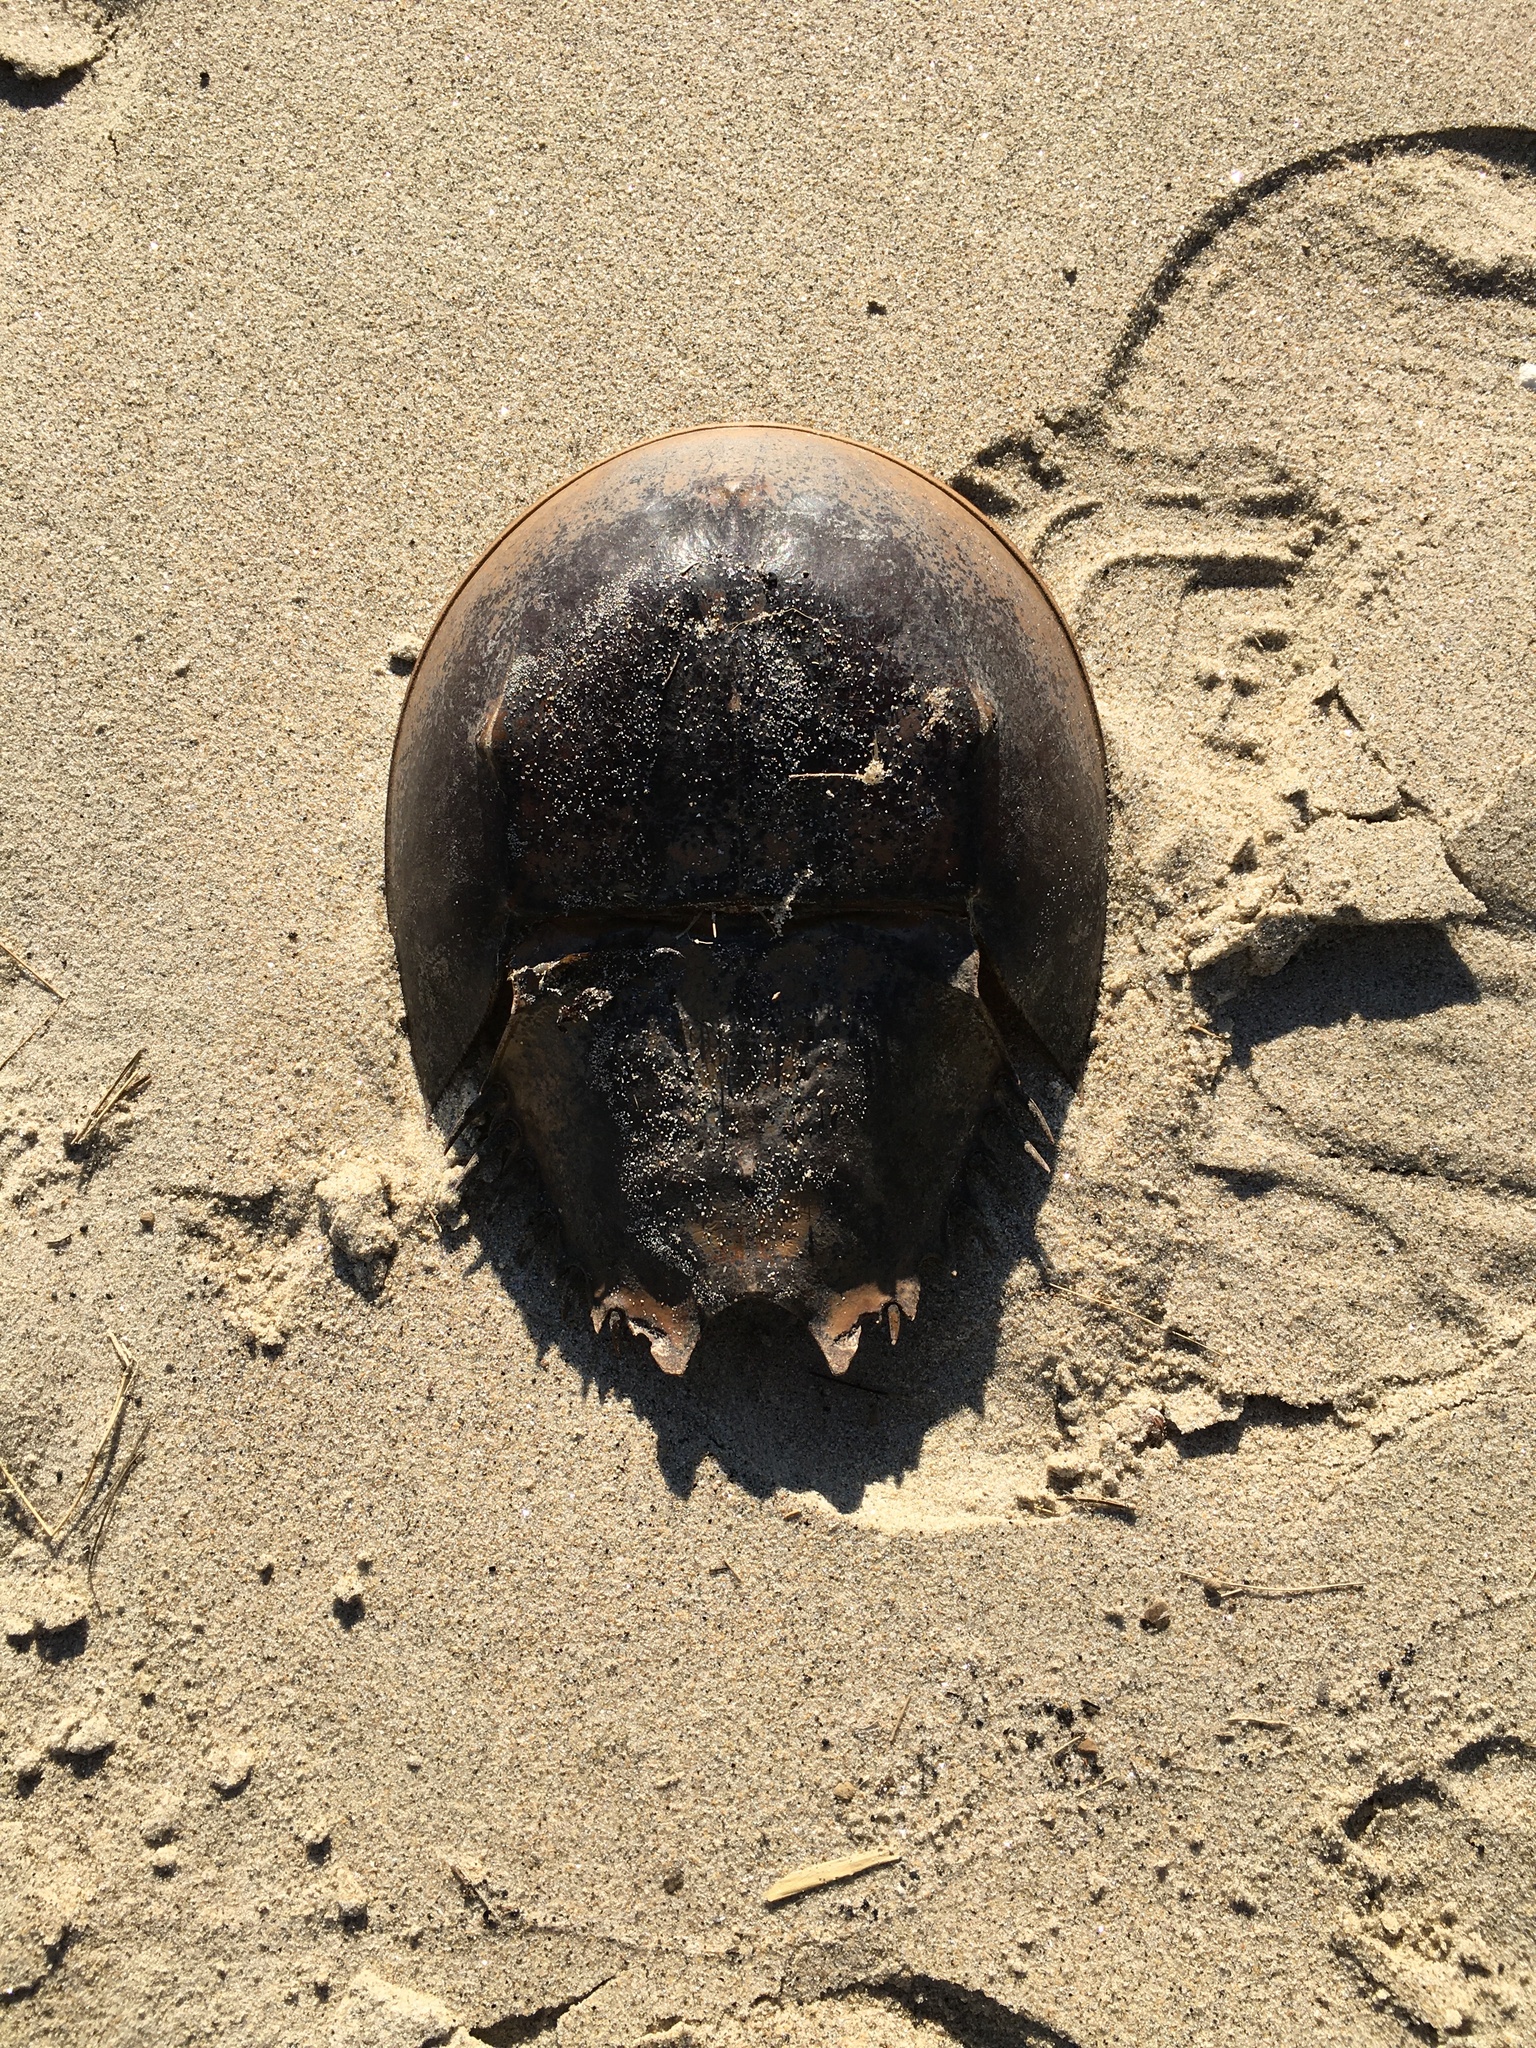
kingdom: Animalia
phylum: Arthropoda
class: Merostomata
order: Xiphosurida
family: Limulidae
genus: Limulus
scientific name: Limulus polyphemus
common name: Horseshoe crab
